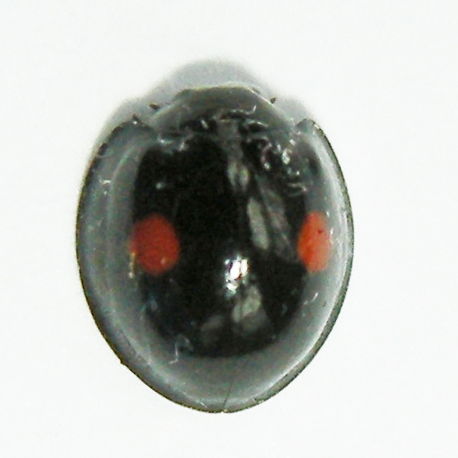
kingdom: Animalia
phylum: Arthropoda
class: Insecta
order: Coleoptera
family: Coccinellidae
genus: Chilocorus
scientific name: Chilocorus stigma
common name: Twicestabbed lady beetle
